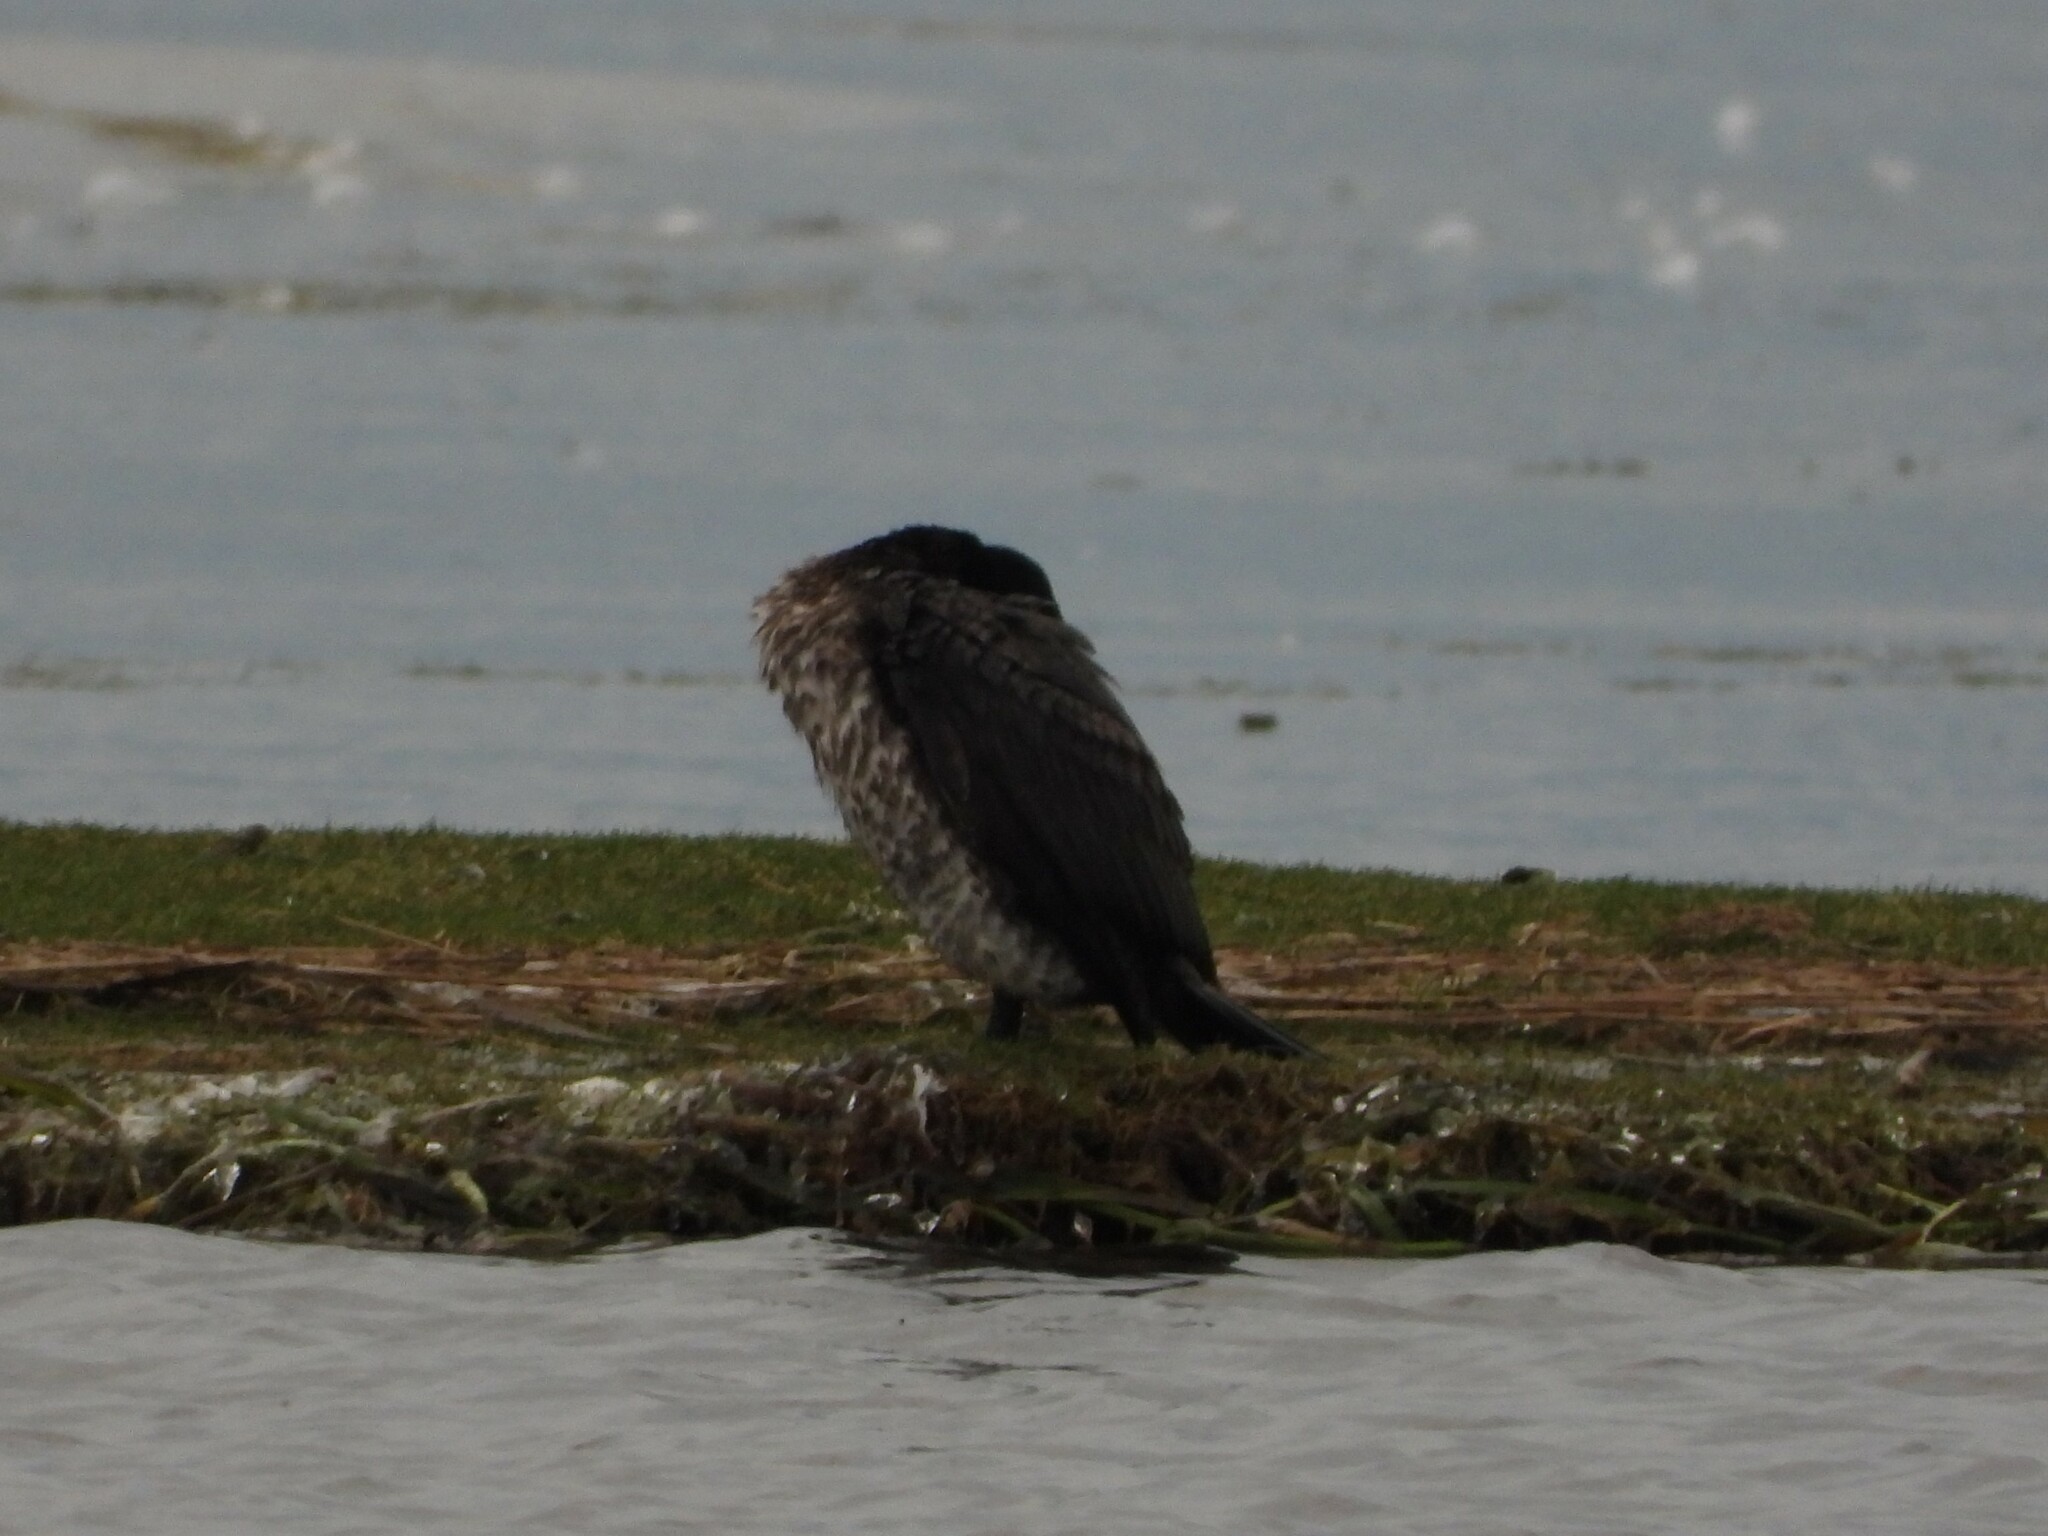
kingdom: Animalia
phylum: Chordata
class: Aves
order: Suliformes
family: Phalacrocoracidae
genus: Phalacrocorax
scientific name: Phalacrocorax carbo
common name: Great cormorant
